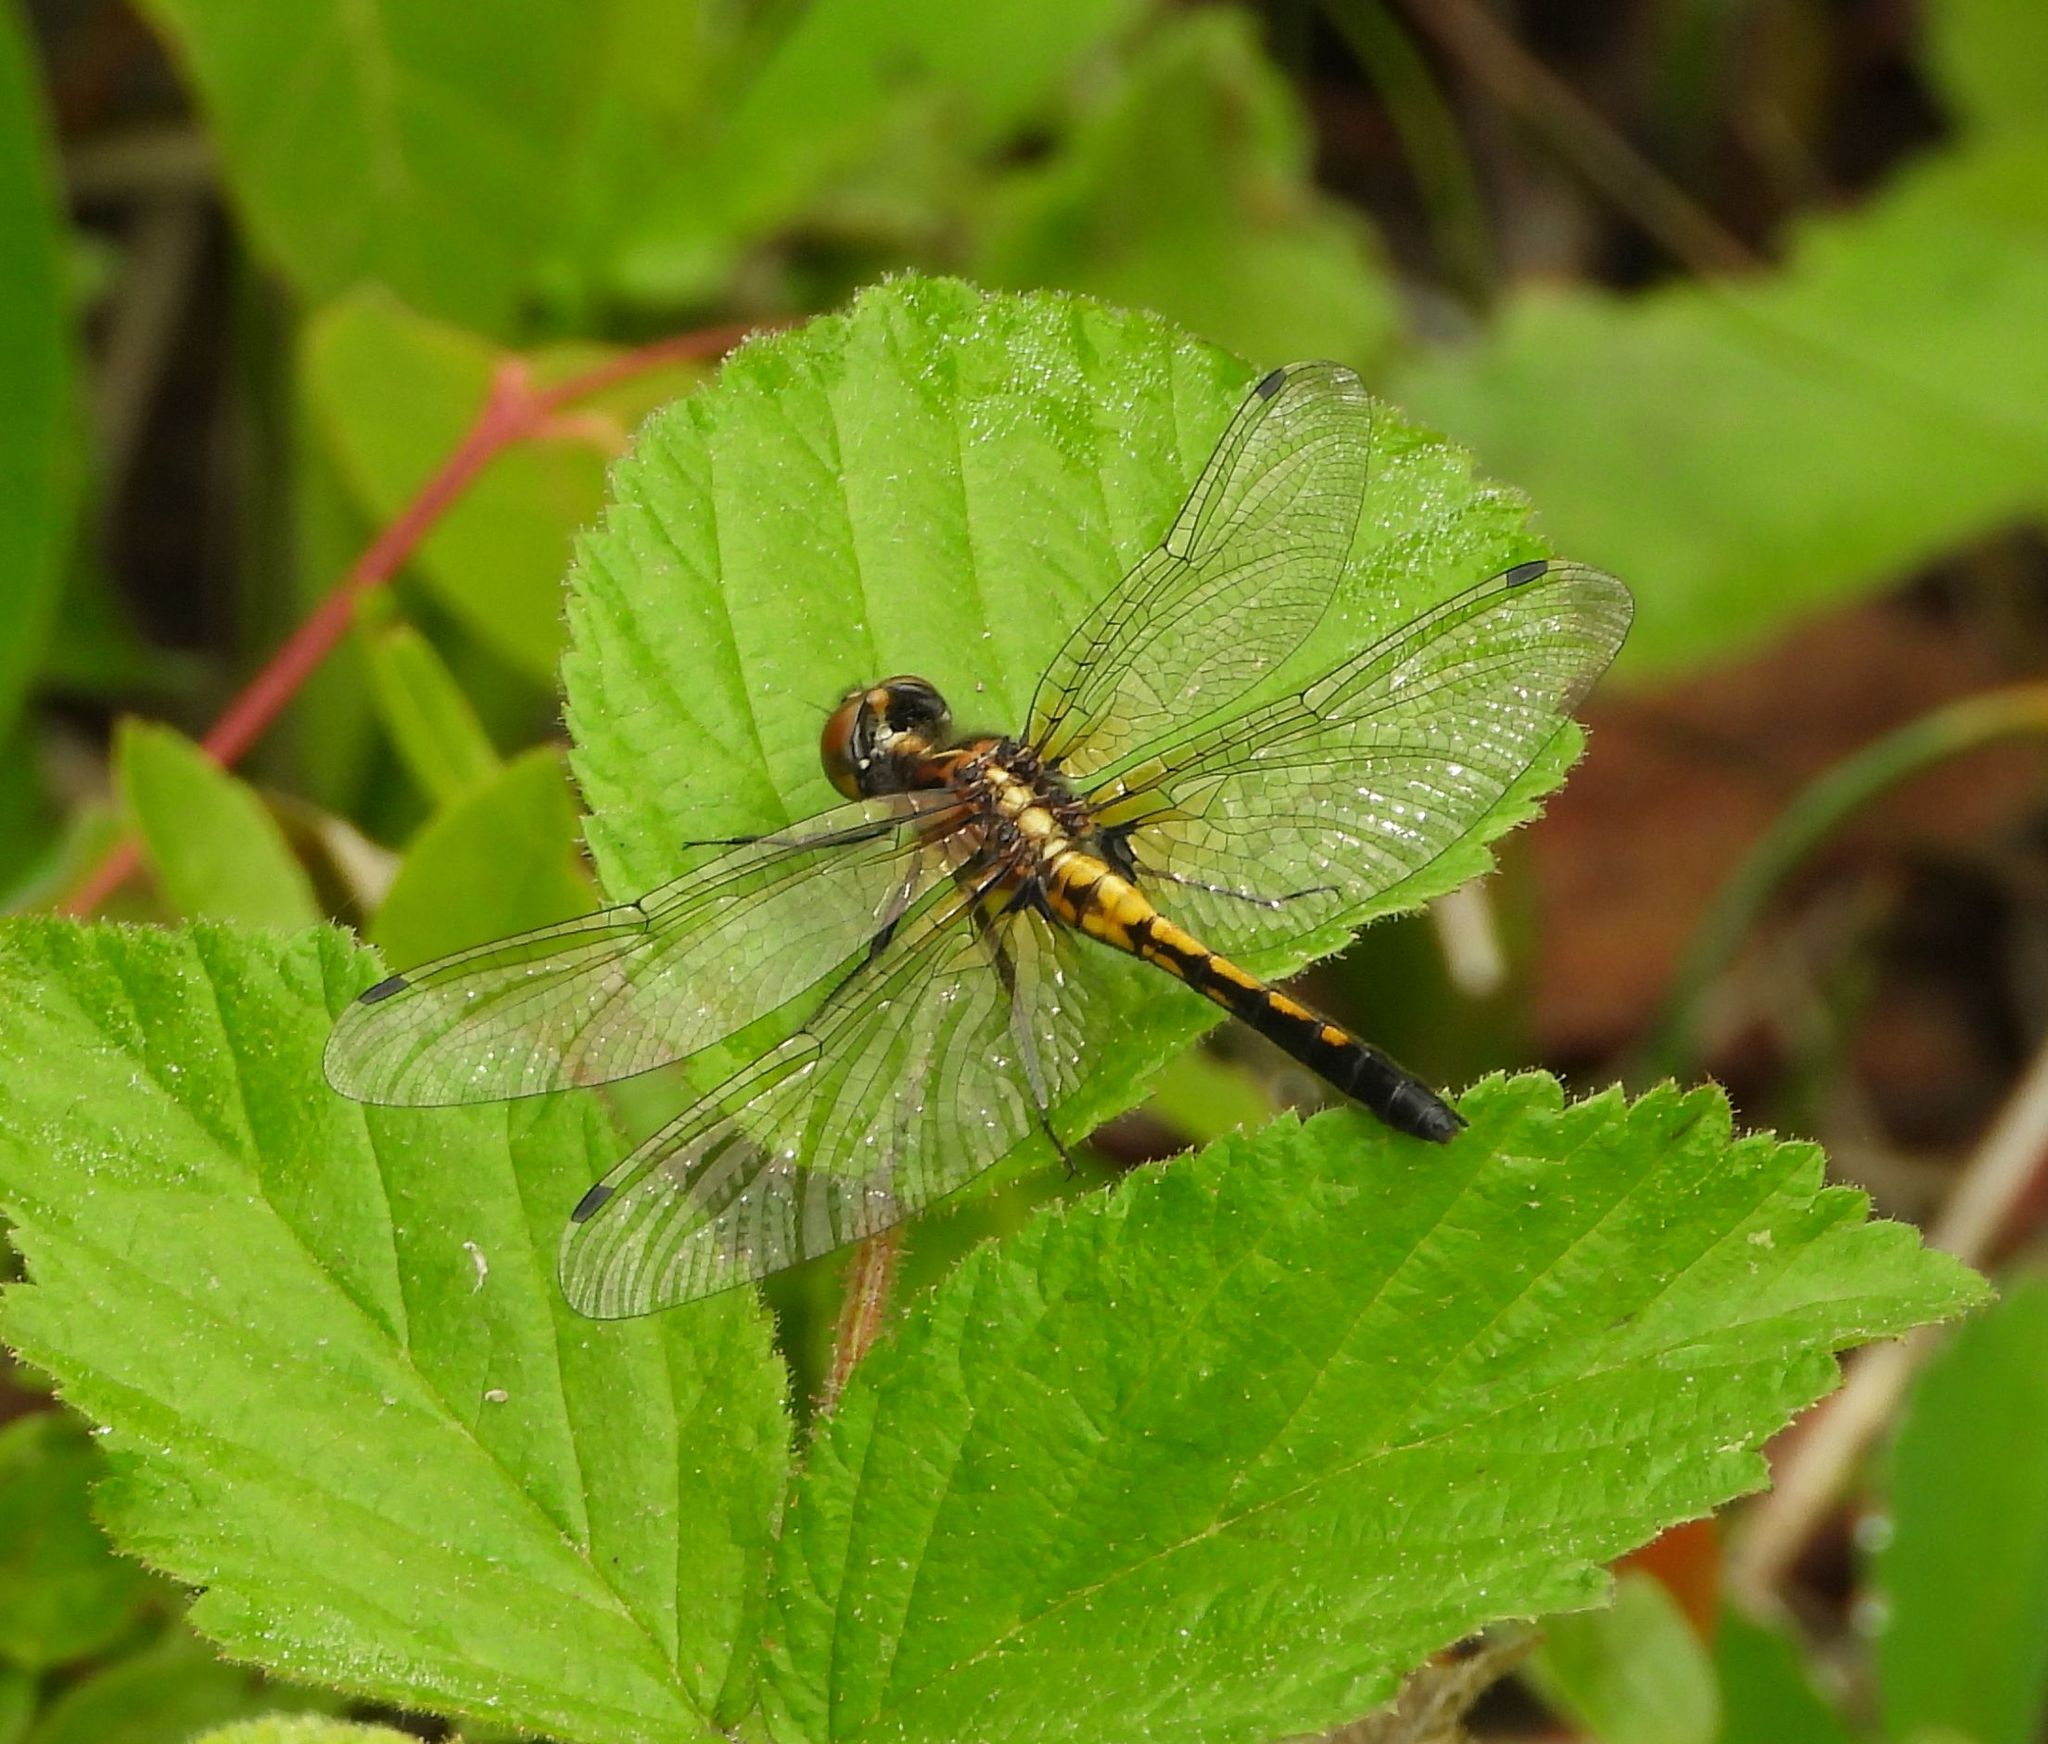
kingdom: Animalia
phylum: Arthropoda
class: Insecta
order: Odonata
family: Libellulidae
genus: Leucorrhinia
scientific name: Leucorrhinia intacta
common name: Dot-tailed whiteface
